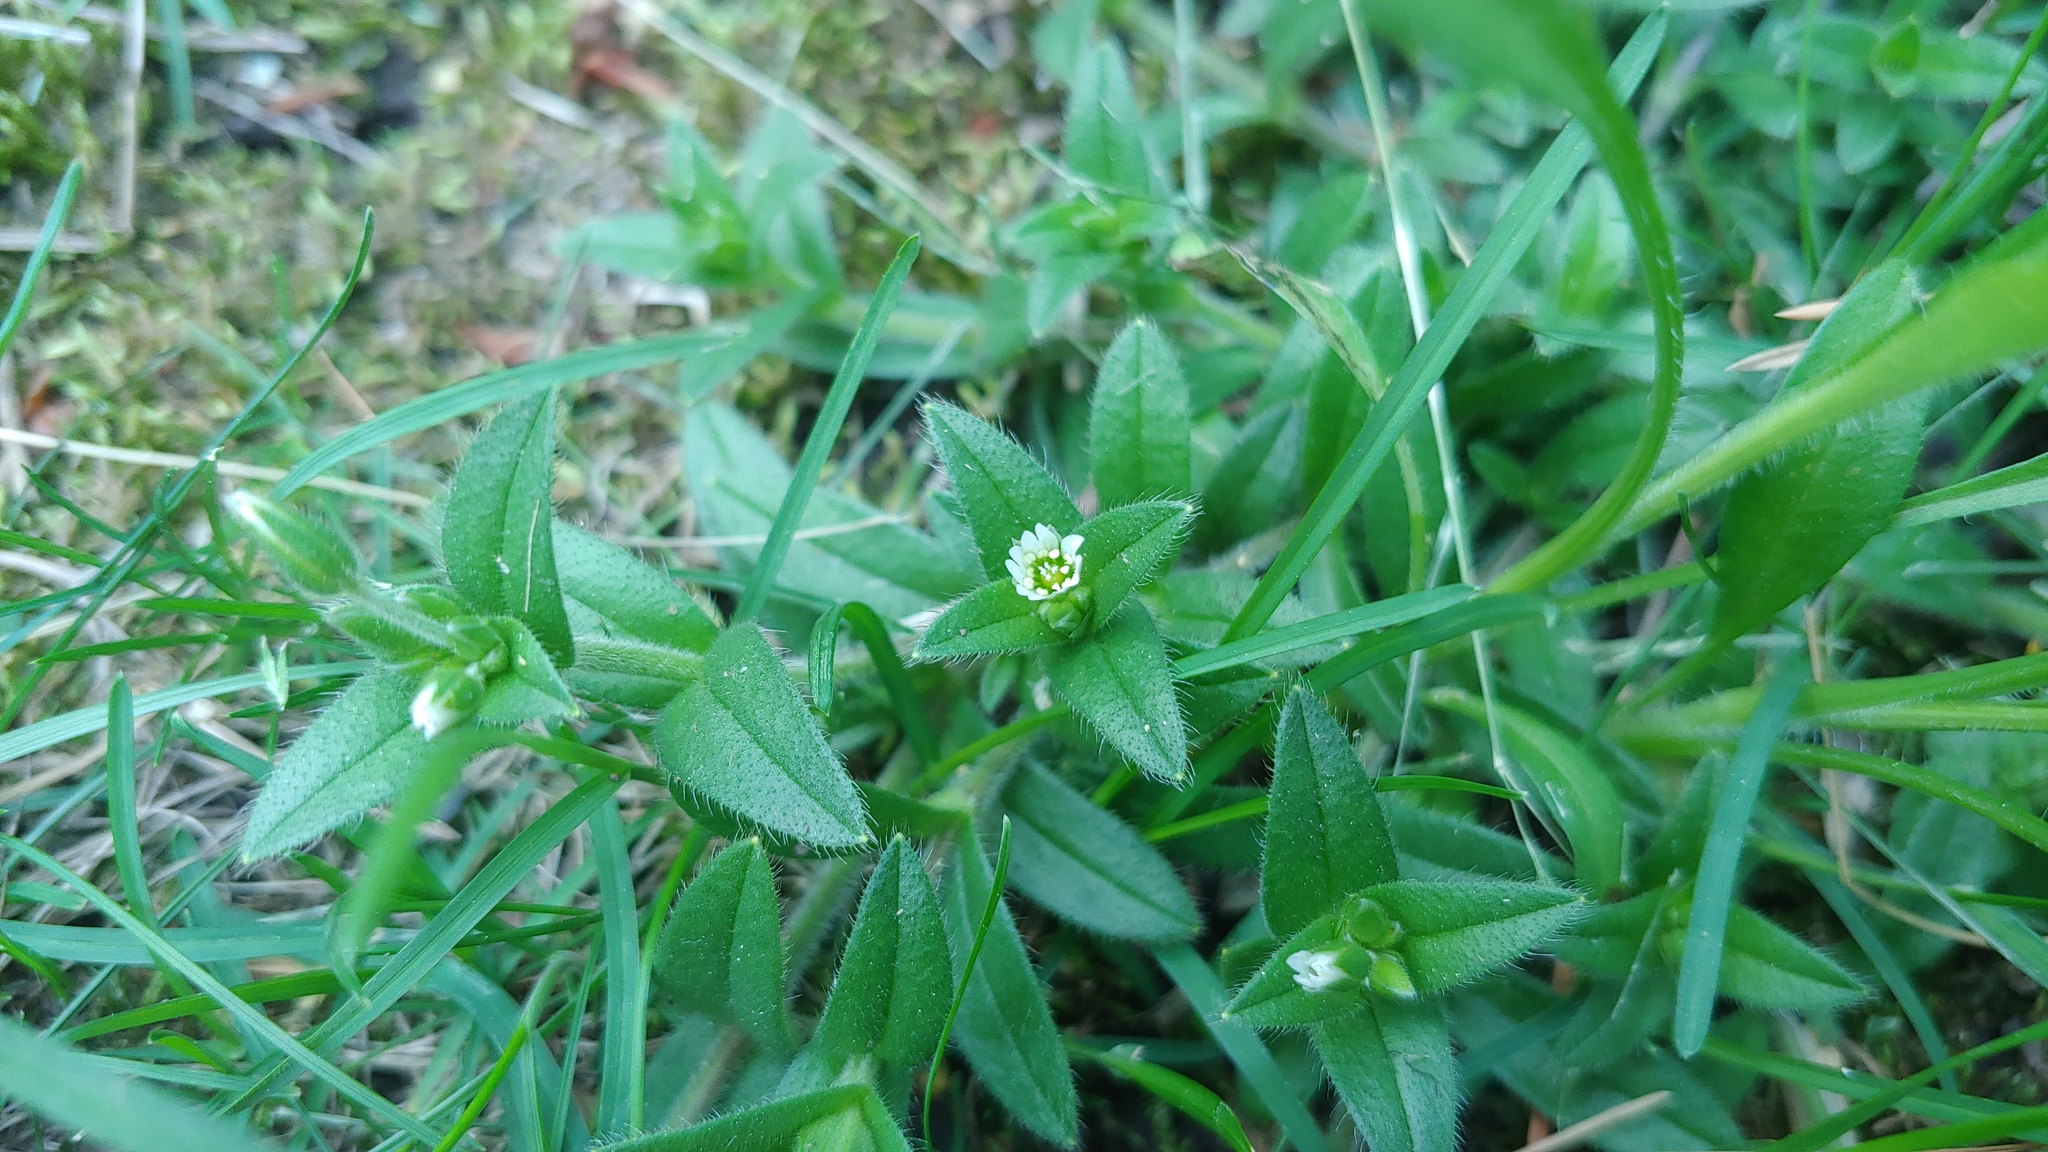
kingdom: Plantae
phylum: Tracheophyta
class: Magnoliopsida
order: Caryophyllales
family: Caryophyllaceae
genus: Cerastium
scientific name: Cerastium fontanum
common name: Common mouse-ear
